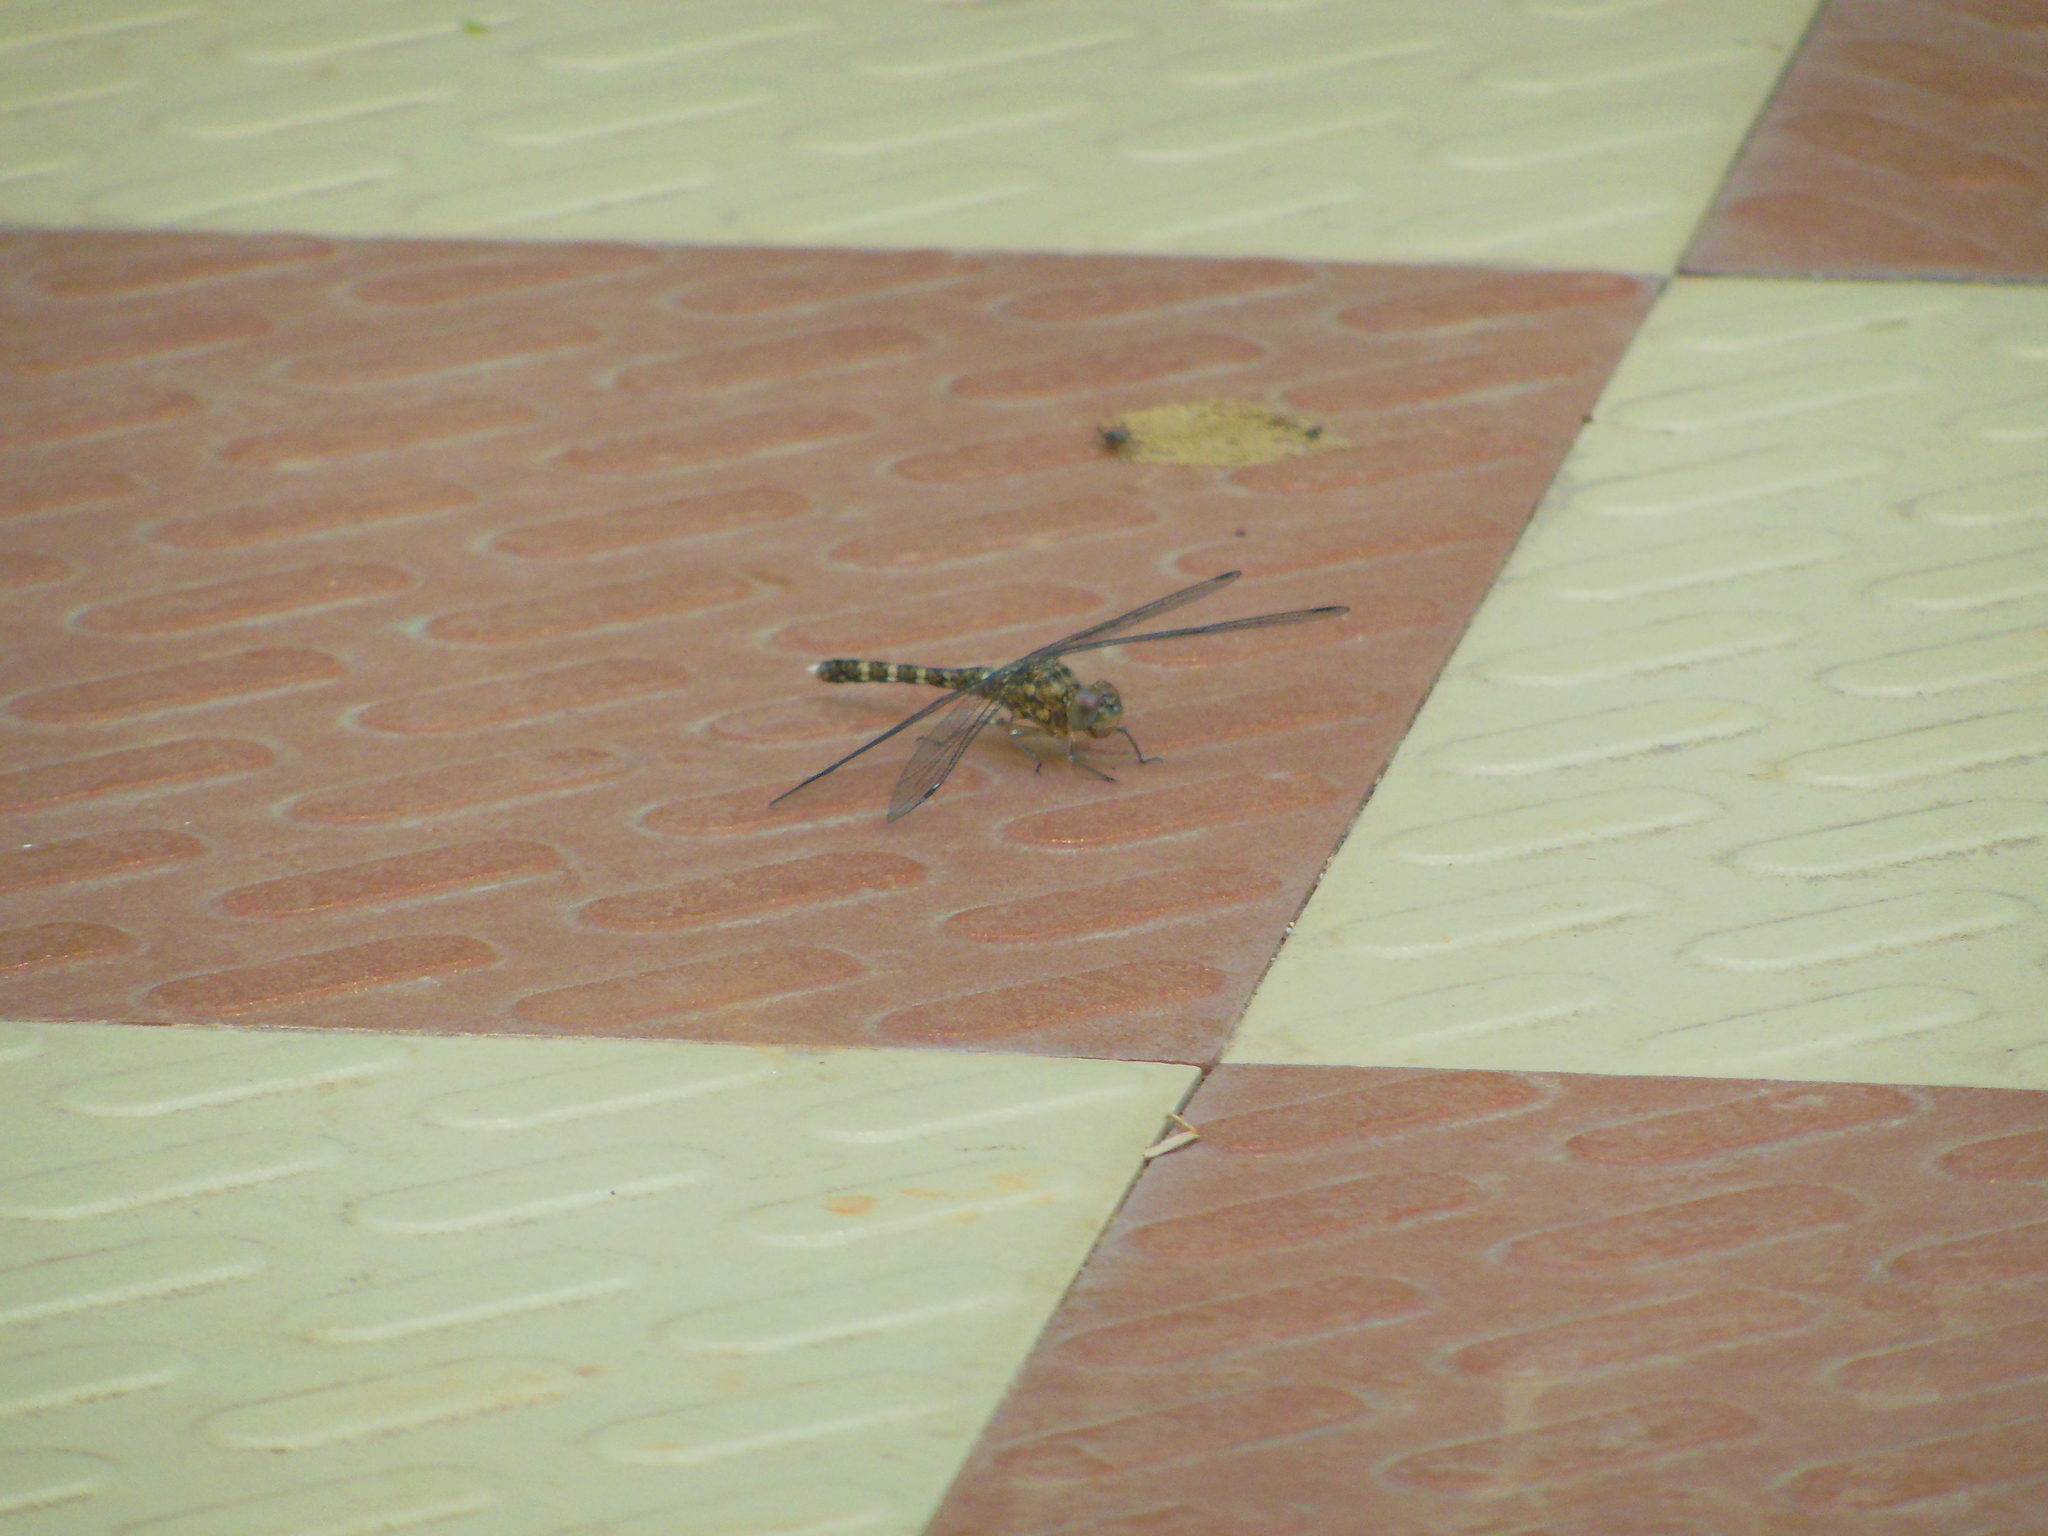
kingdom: Animalia
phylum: Arthropoda
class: Insecta
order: Odonata
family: Libellulidae
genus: Bradinopyga
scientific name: Bradinopyga geminata
